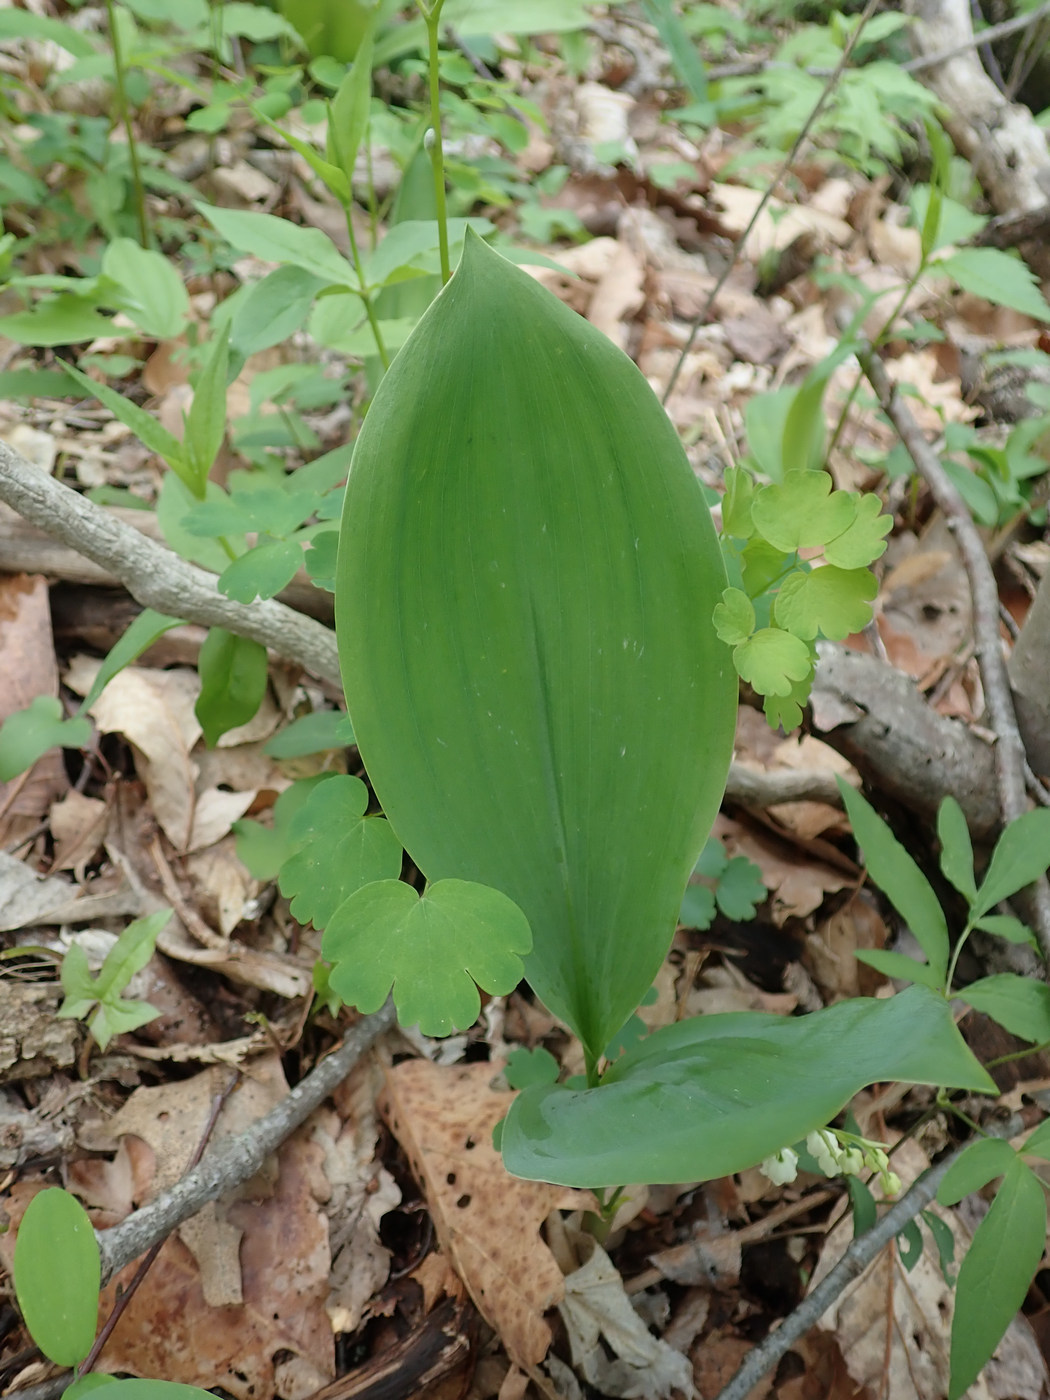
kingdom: Plantae
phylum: Tracheophyta
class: Liliopsida
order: Asparagales
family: Asparagaceae
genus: Convallaria
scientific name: Convallaria pseudomajalis
